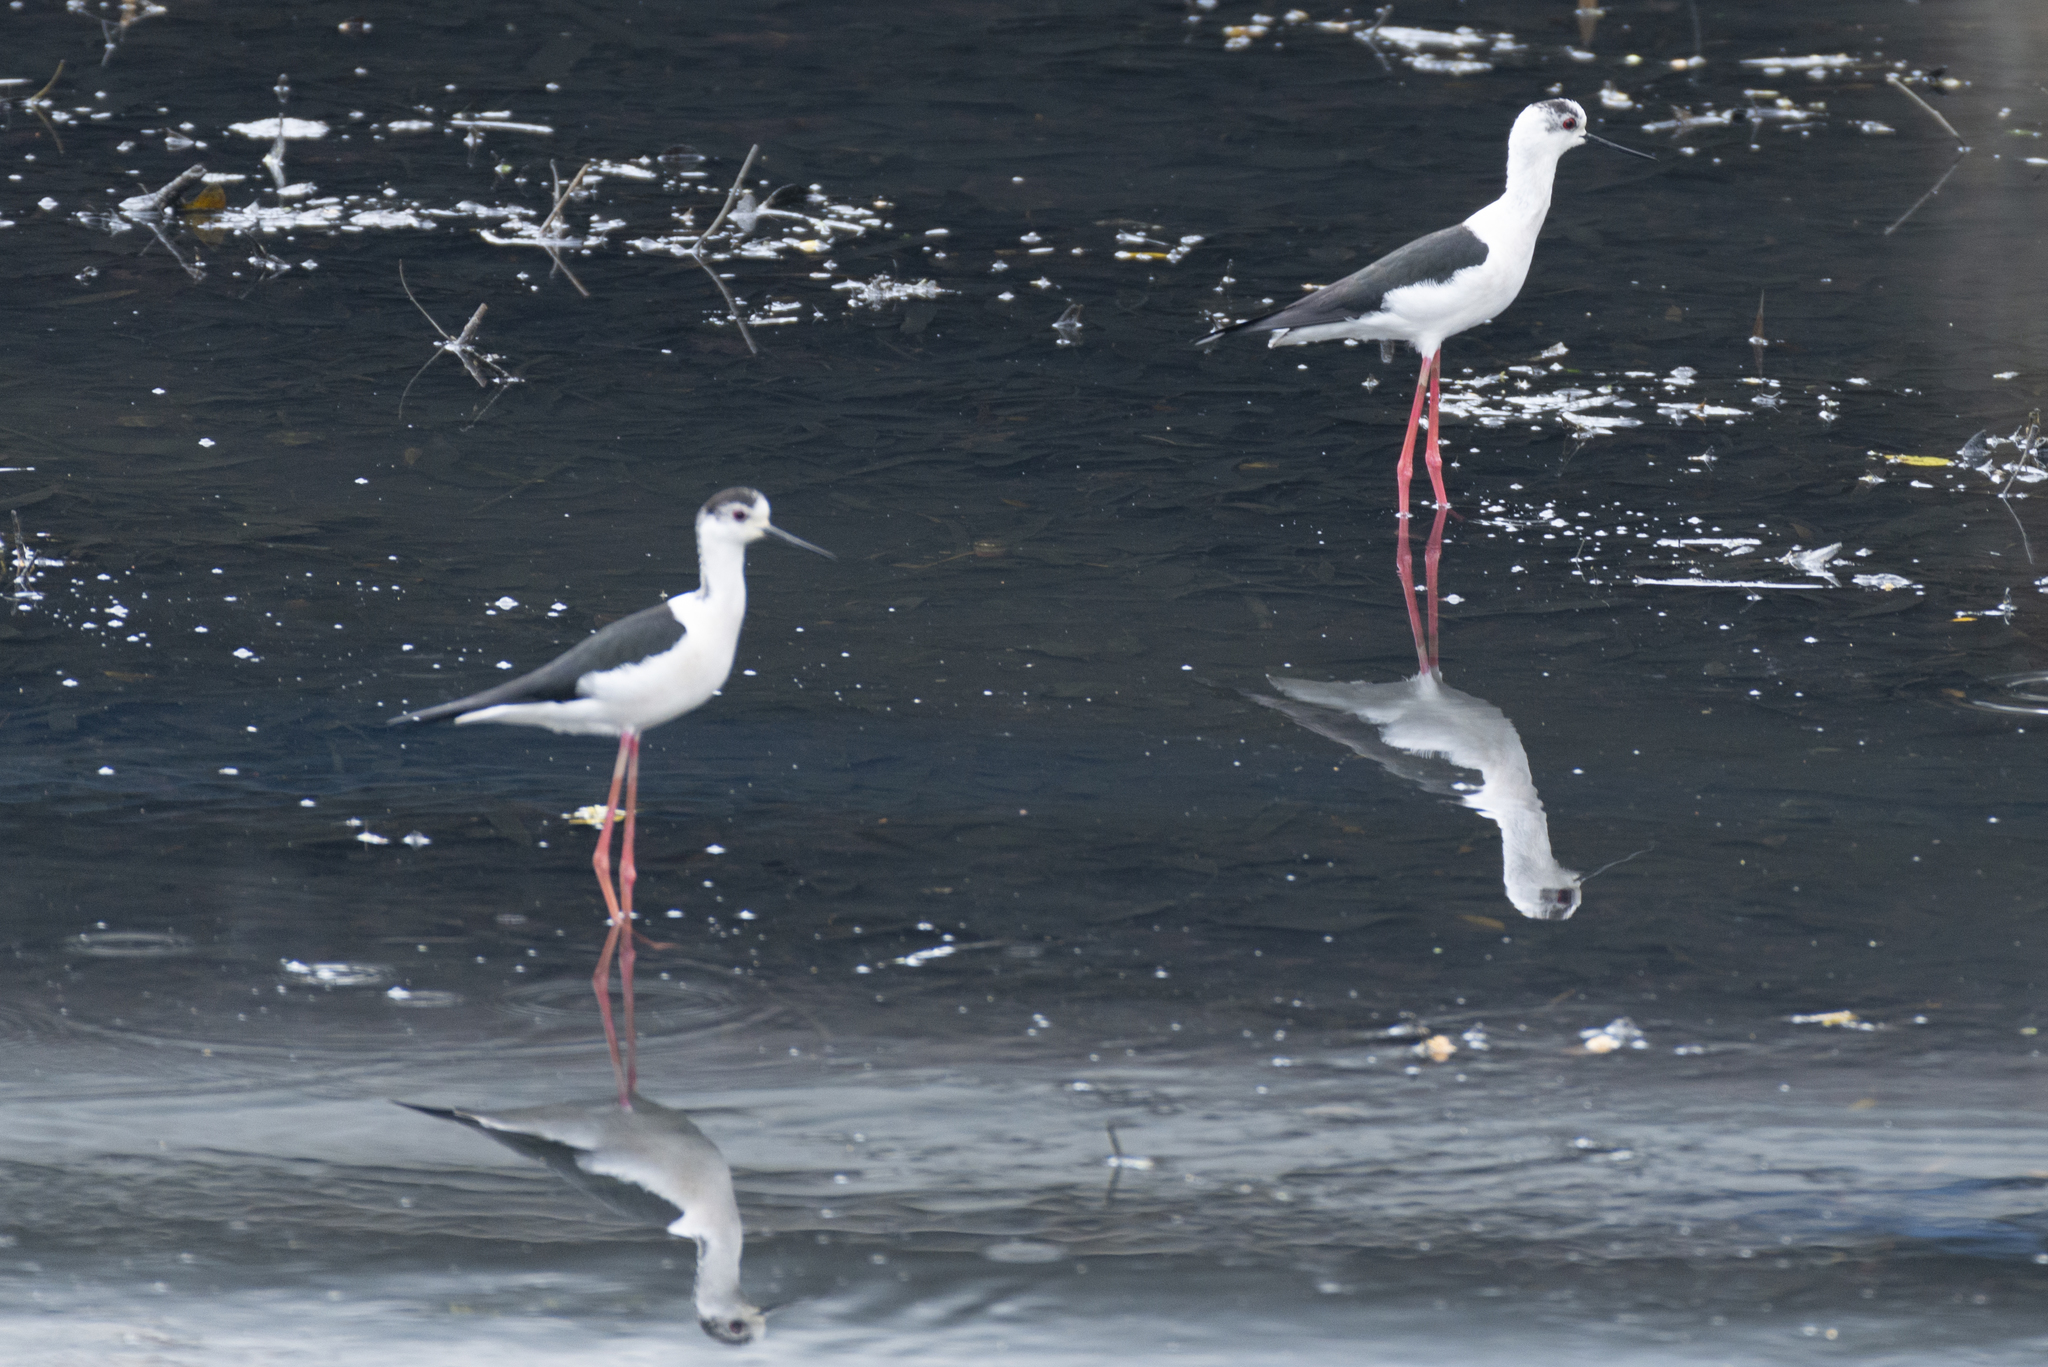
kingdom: Animalia
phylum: Chordata
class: Aves
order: Charadriiformes
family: Recurvirostridae
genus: Himantopus
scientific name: Himantopus himantopus
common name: Black-winged stilt
